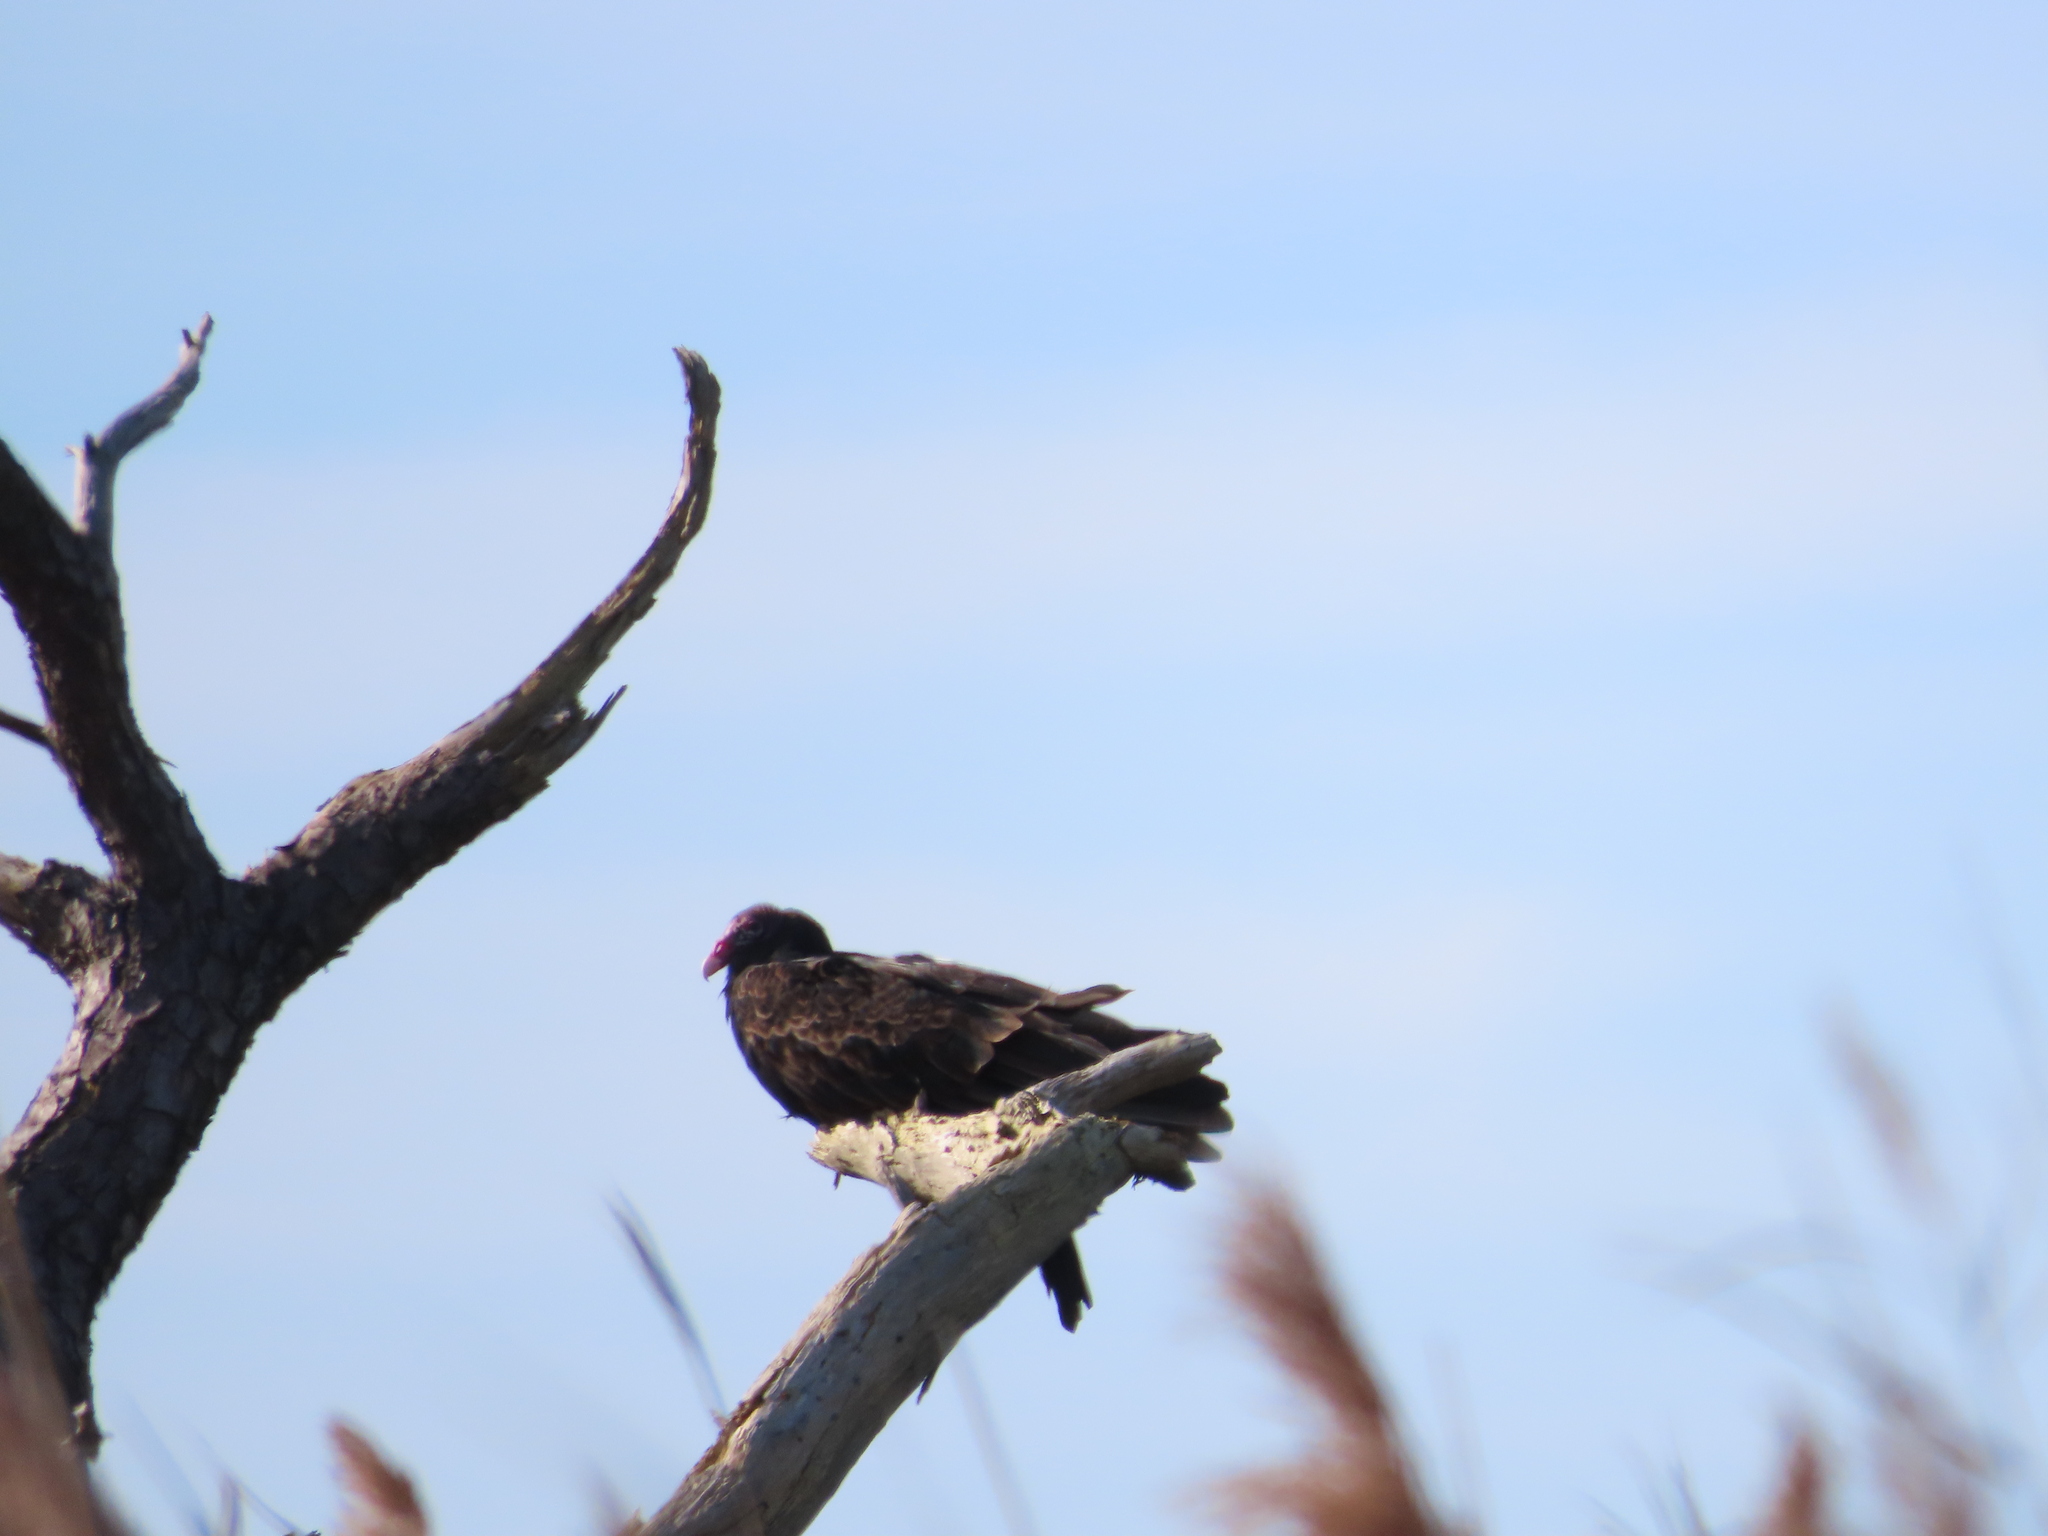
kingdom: Animalia
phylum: Chordata
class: Aves
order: Accipitriformes
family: Cathartidae
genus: Cathartes
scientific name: Cathartes aura
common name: Turkey vulture
